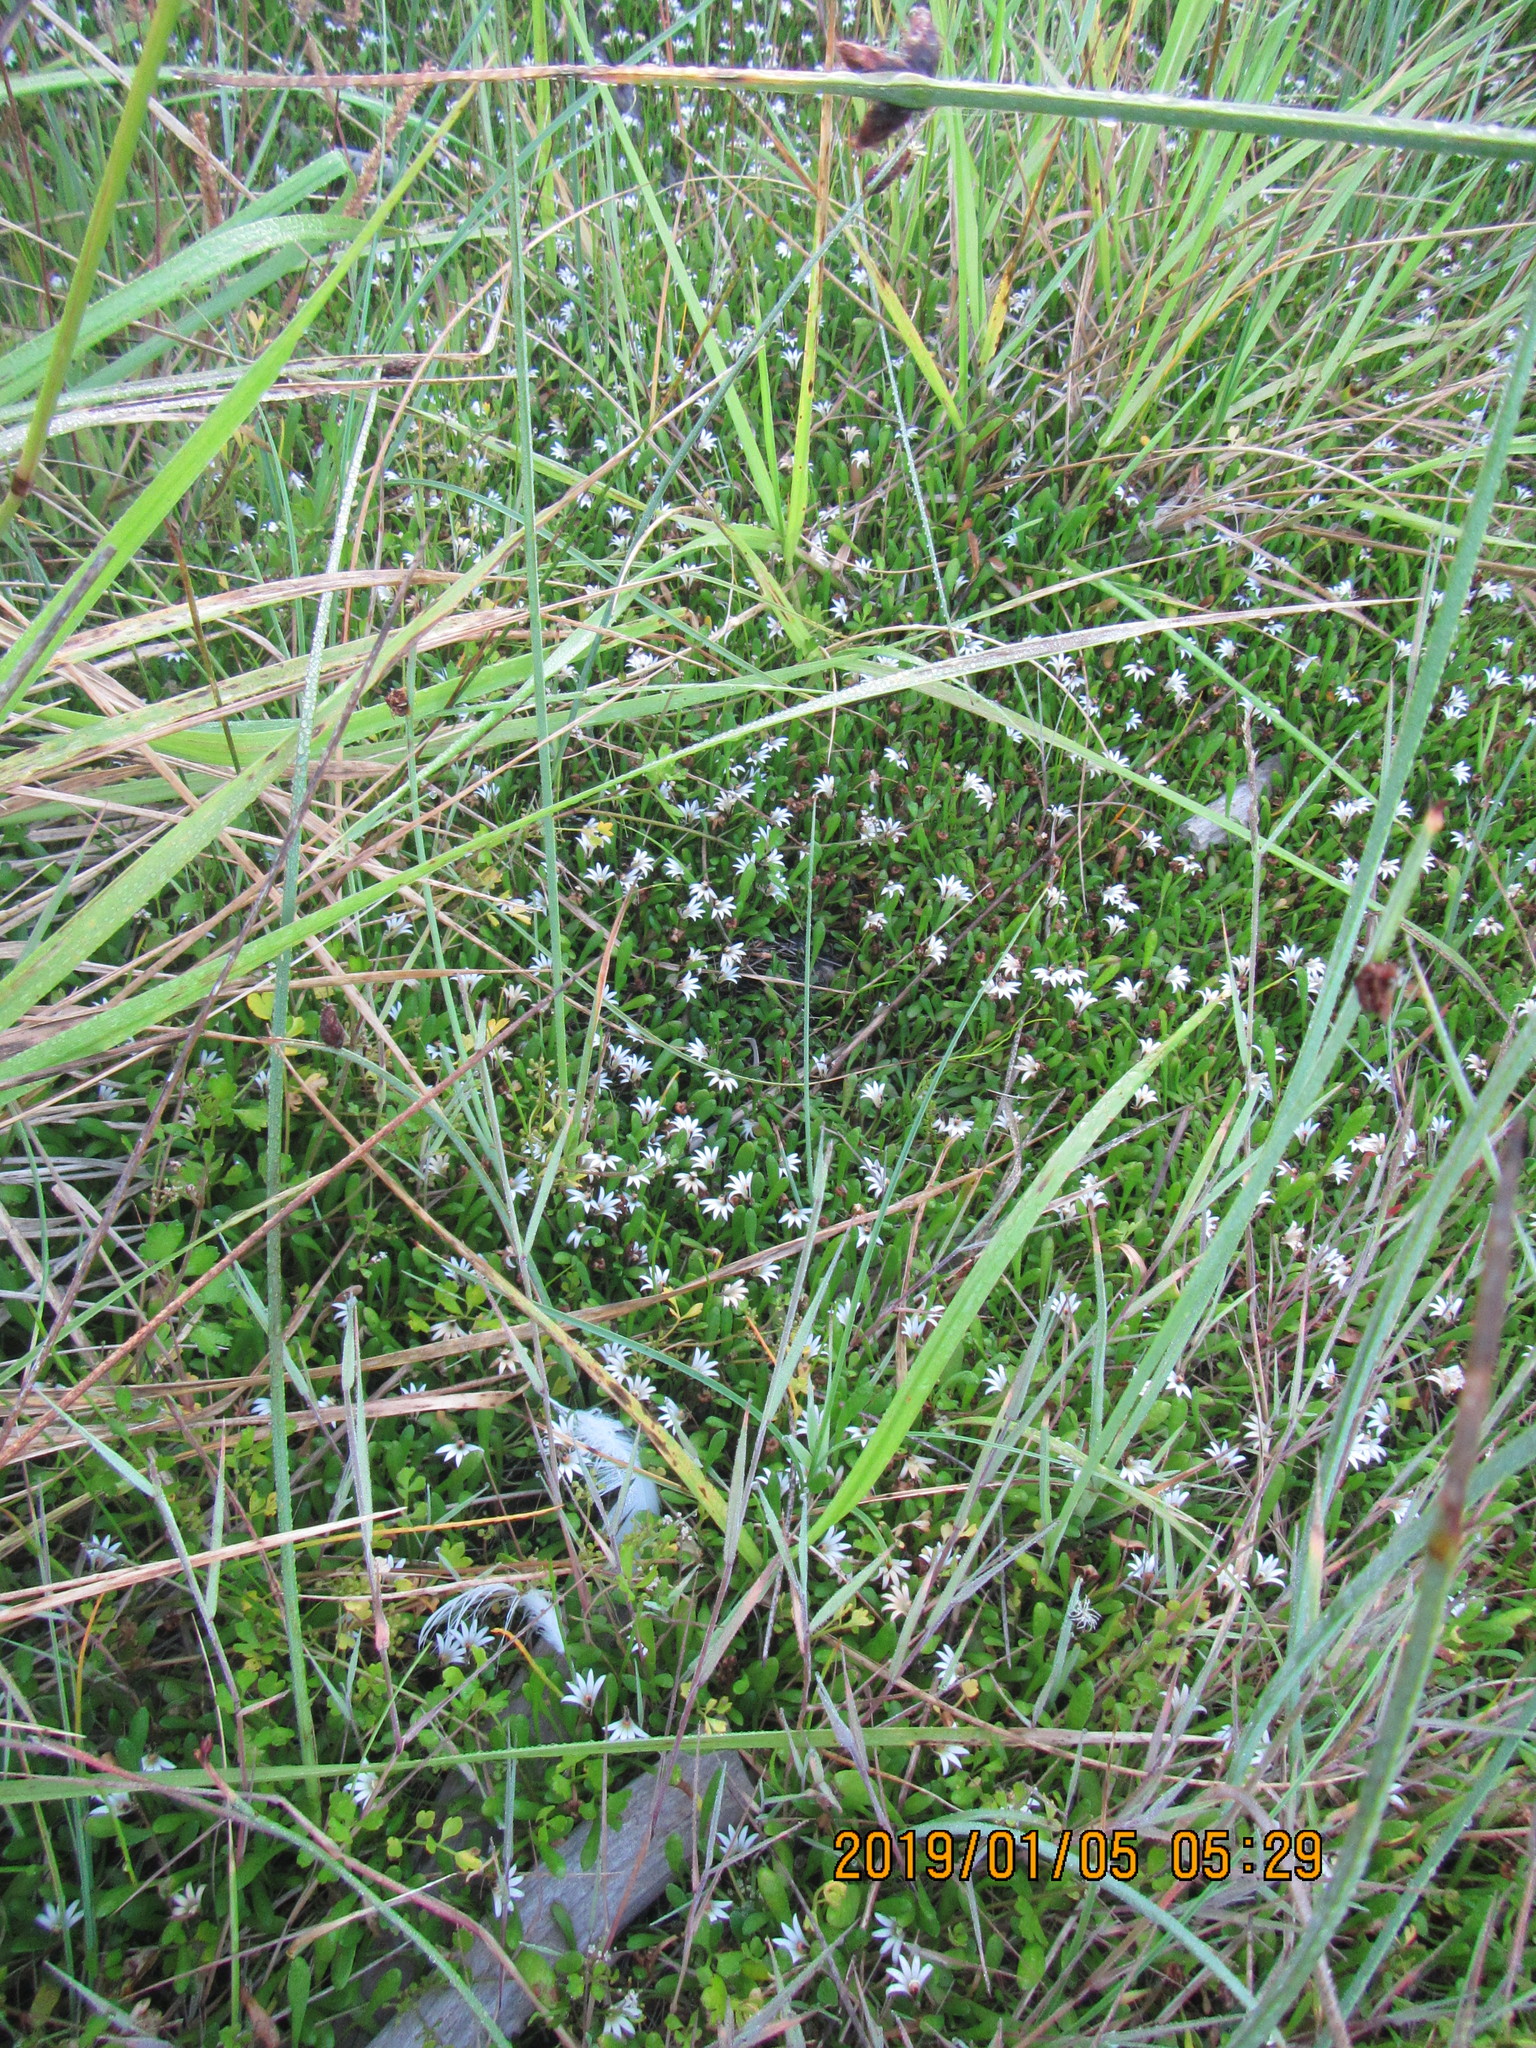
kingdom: Plantae
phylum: Tracheophyta
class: Magnoliopsida
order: Asterales
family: Goodeniaceae
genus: Goodenia
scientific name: Goodenia radicans
